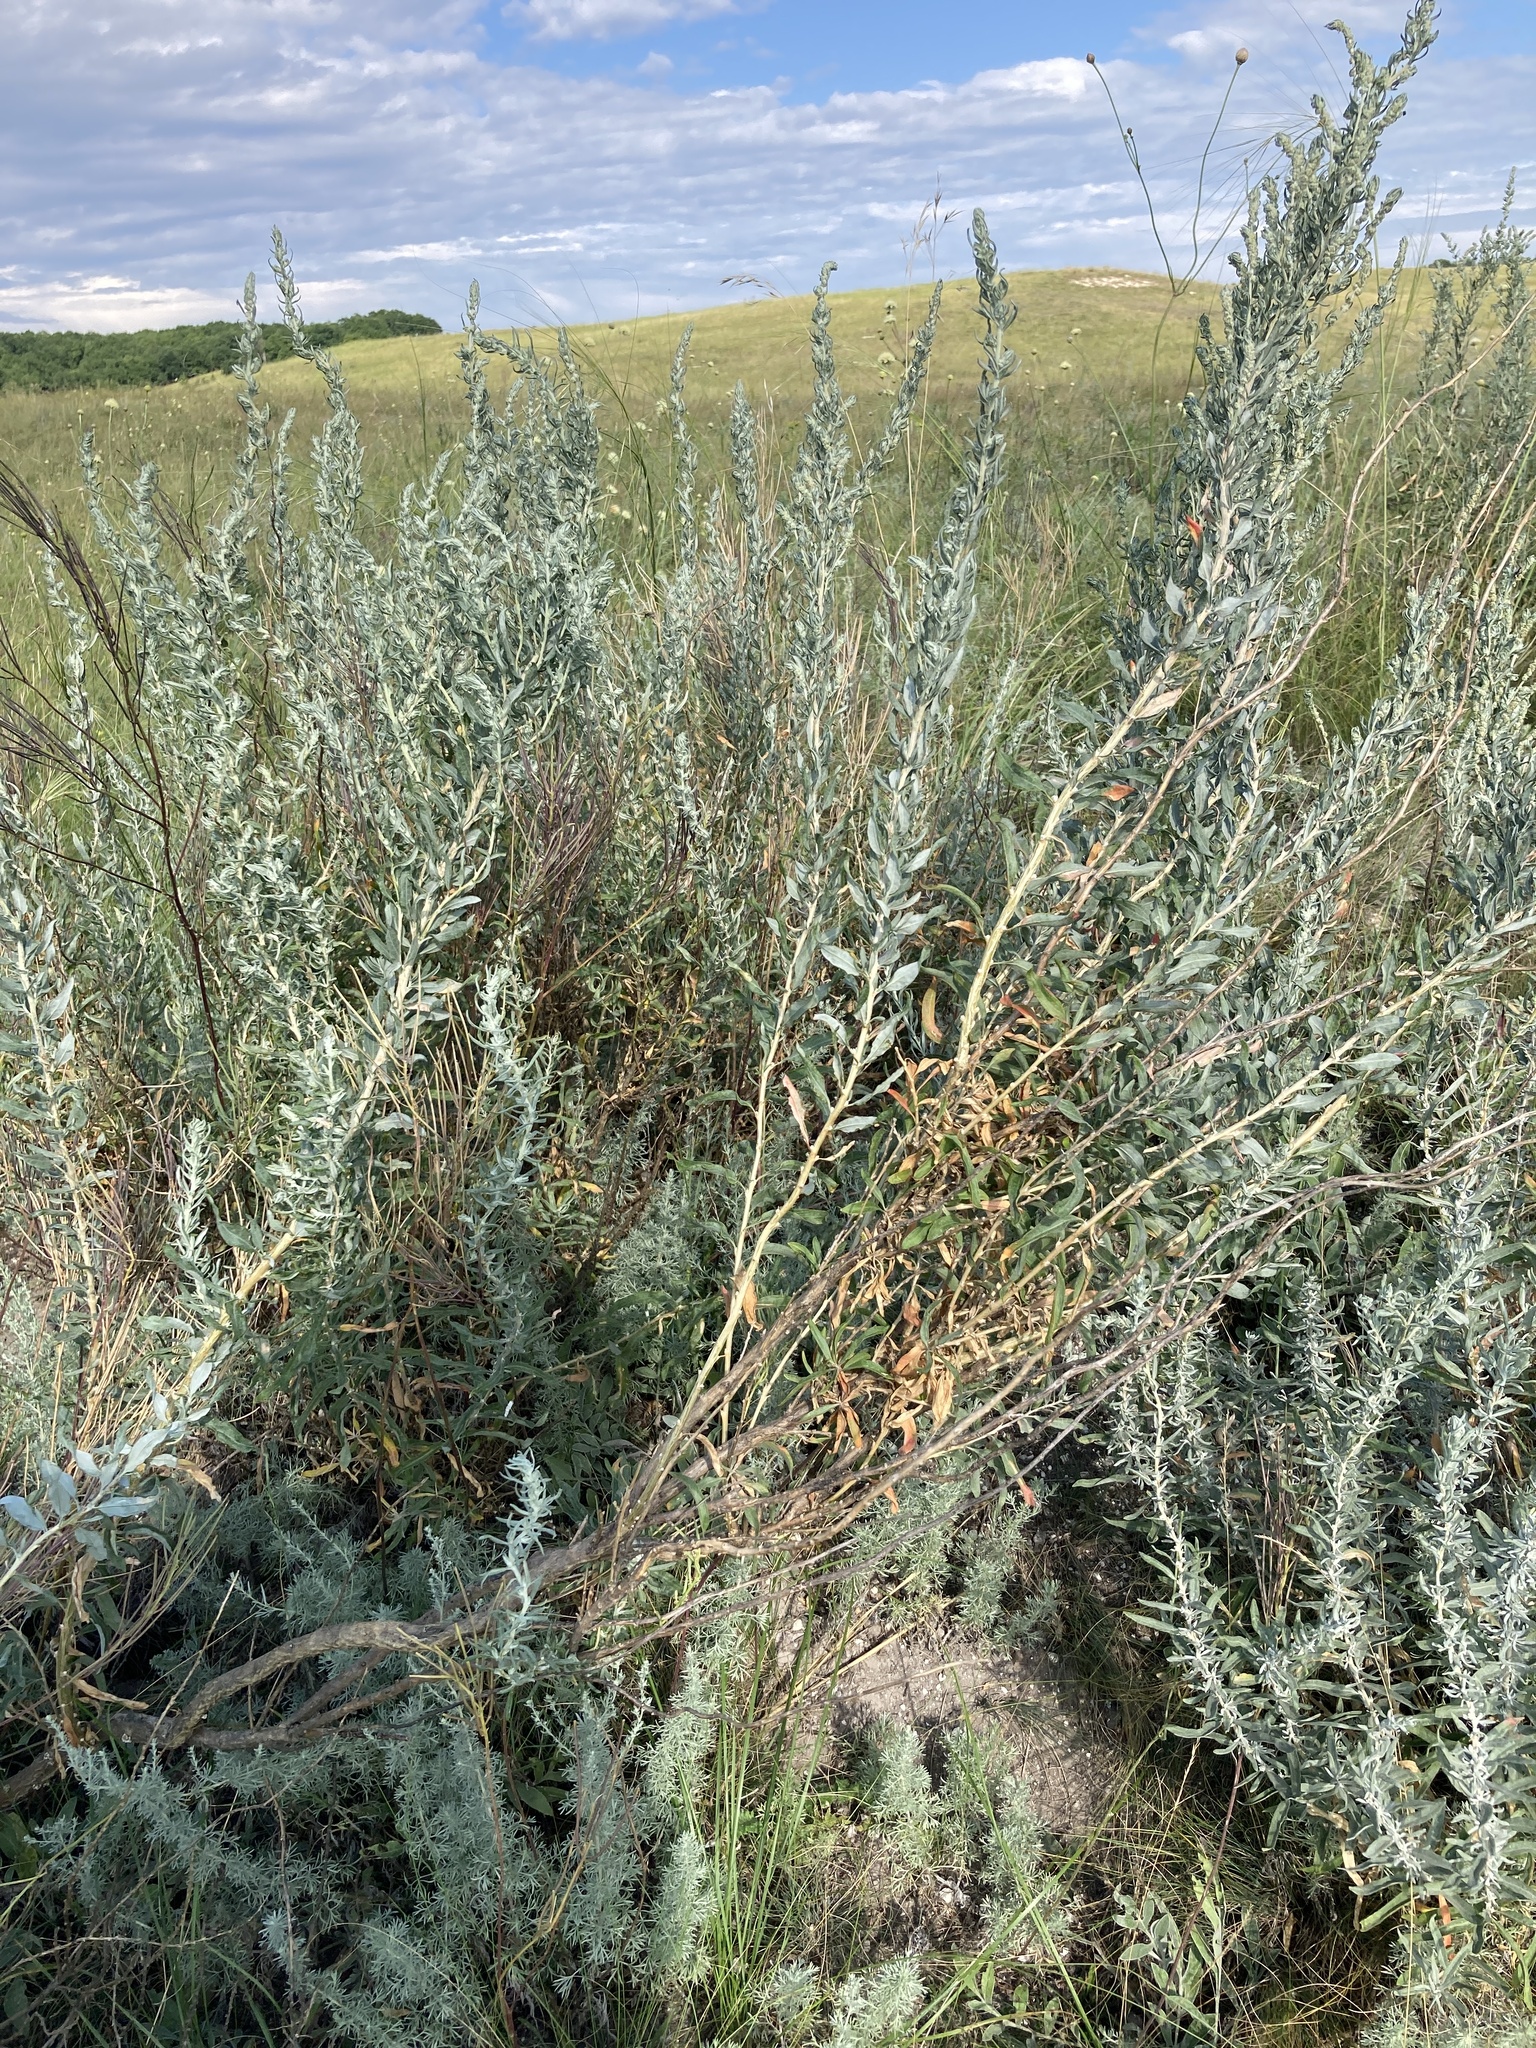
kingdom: Plantae
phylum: Tracheophyta
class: Magnoliopsida
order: Caryophyllales
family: Amaranthaceae
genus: Krascheninnikovia
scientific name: Krascheninnikovia ceratoides
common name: Pamirian winterfat
